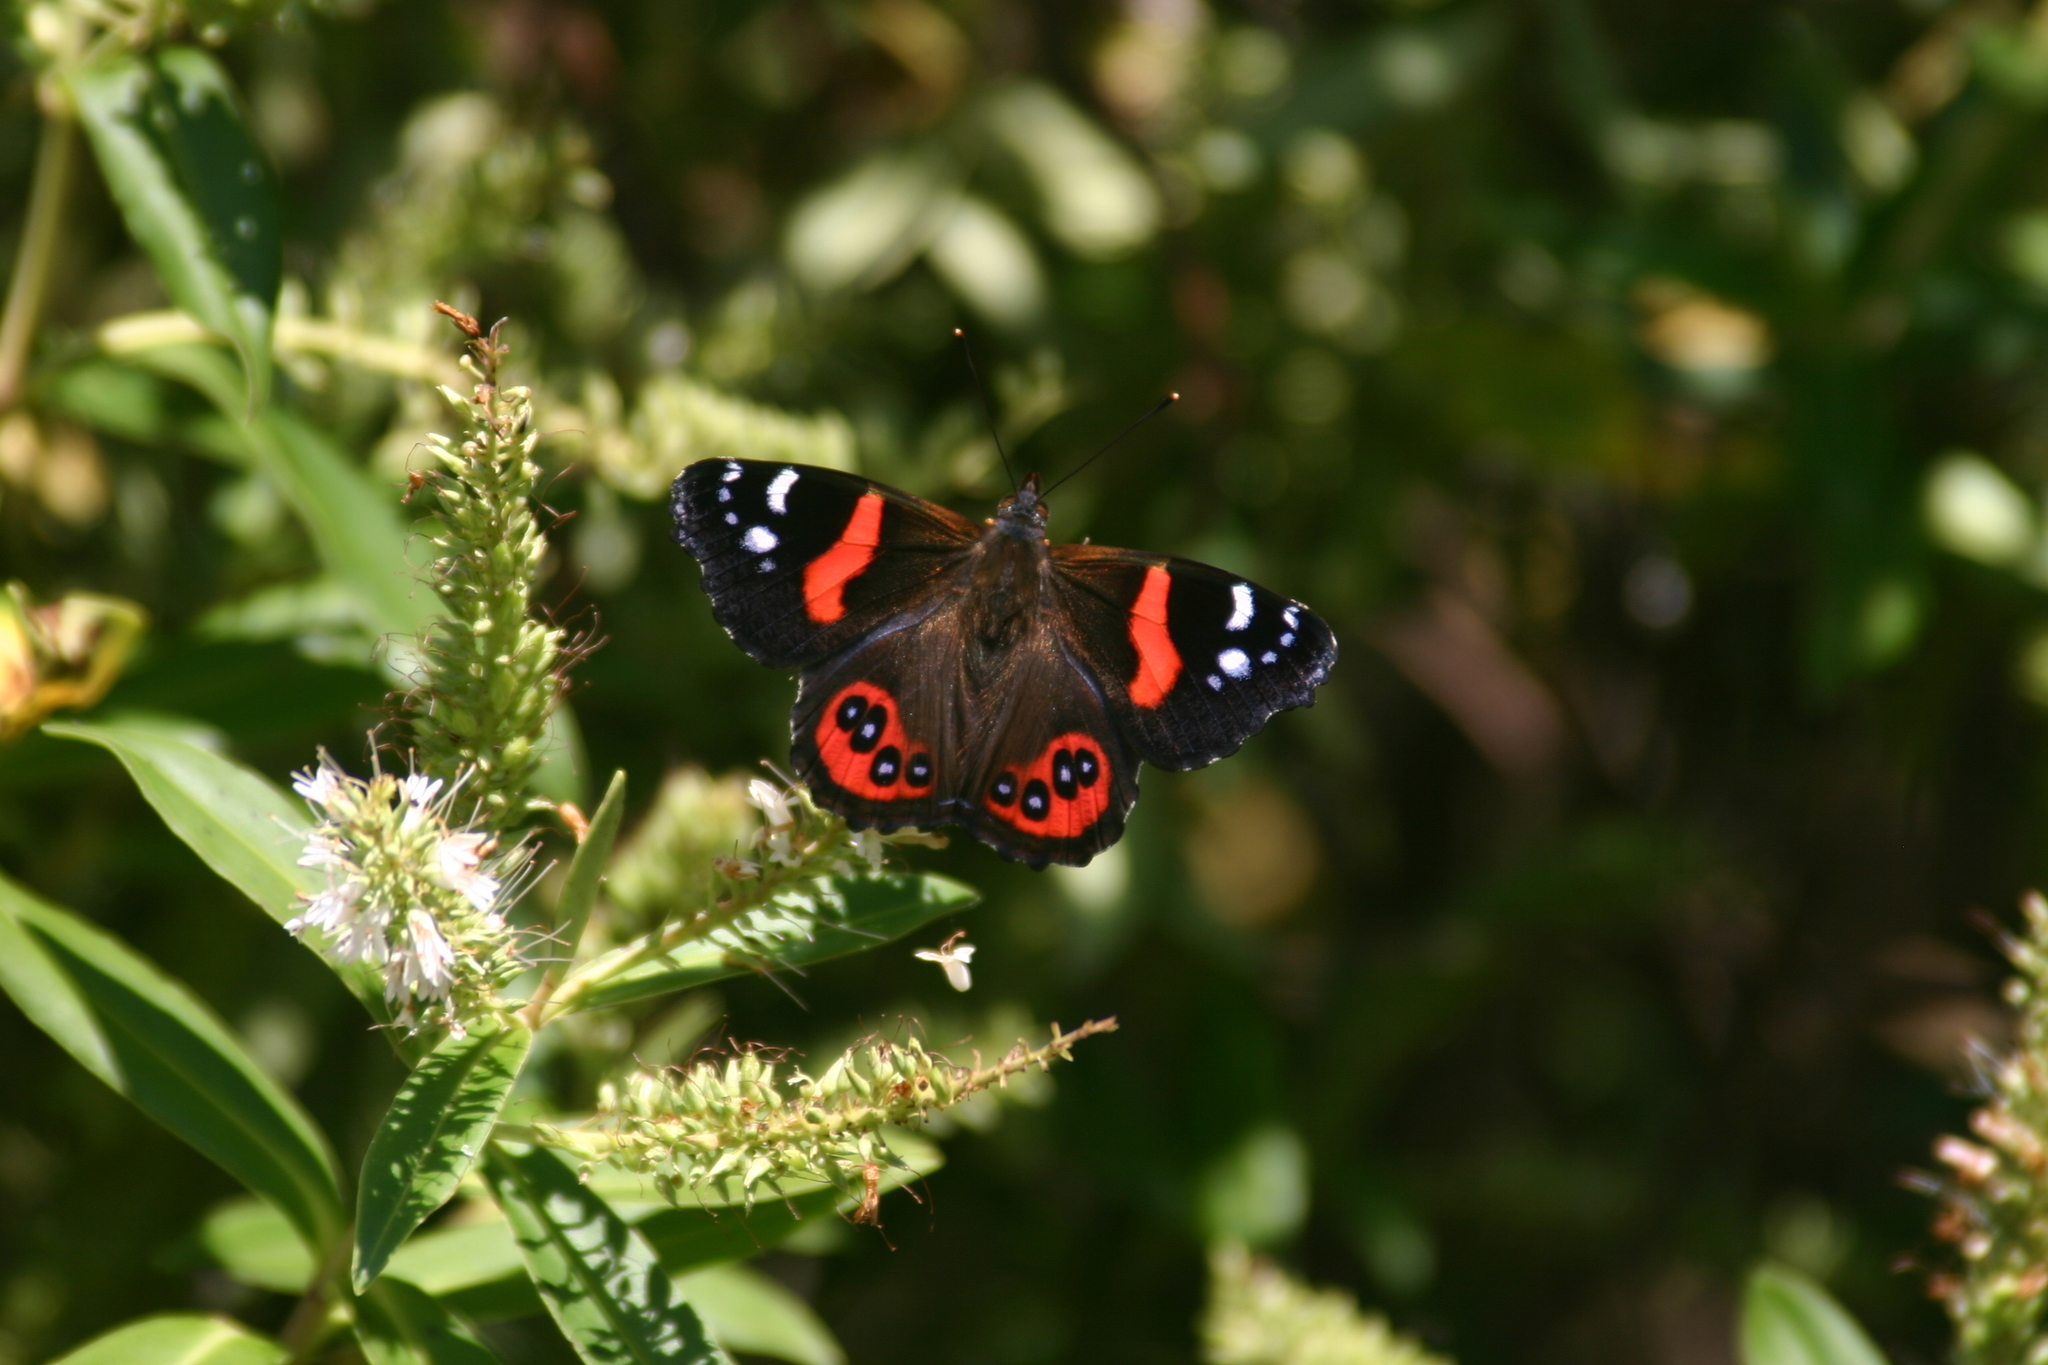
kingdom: Animalia
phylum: Arthropoda
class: Insecta
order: Lepidoptera
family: Nymphalidae
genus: Vanessa
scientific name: Vanessa gonerilla
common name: New zealand red admiral
